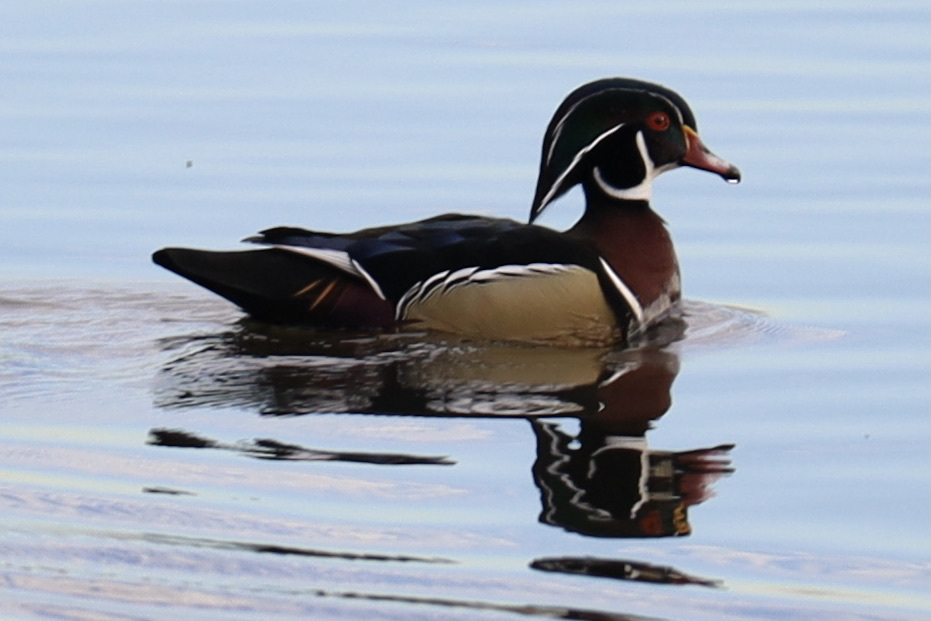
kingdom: Animalia
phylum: Chordata
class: Aves
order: Anseriformes
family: Anatidae
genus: Aix
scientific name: Aix sponsa
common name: Wood duck
